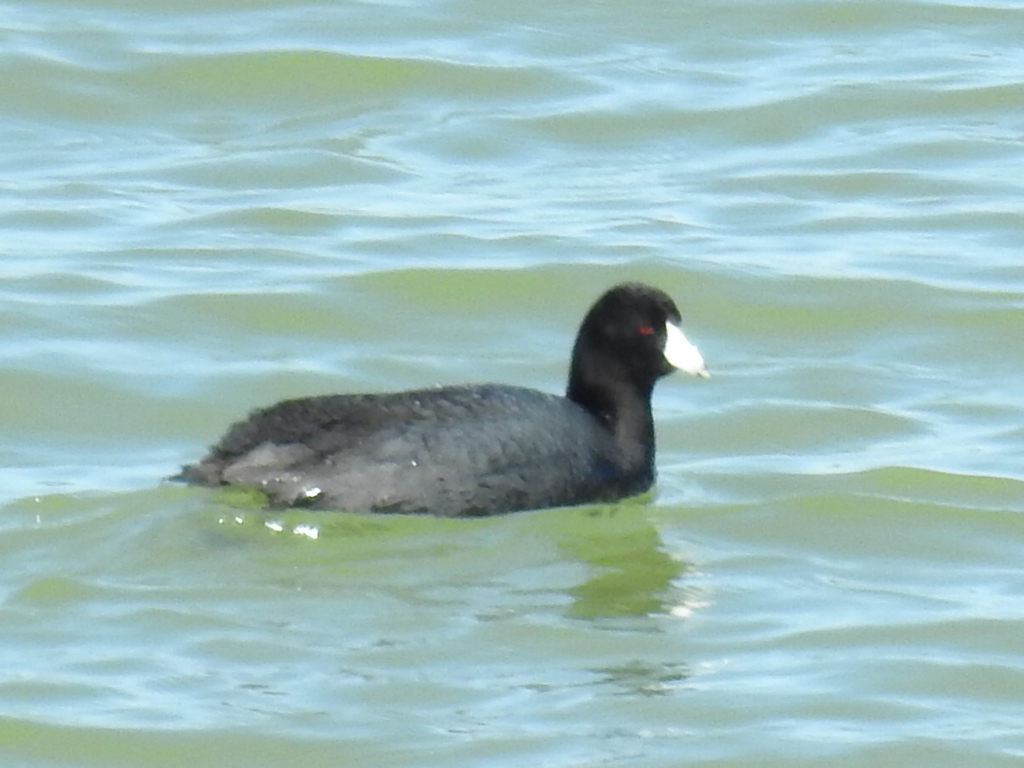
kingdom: Animalia
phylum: Chordata
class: Aves
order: Gruiformes
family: Rallidae
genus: Fulica
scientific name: Fulica americana
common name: American coot
